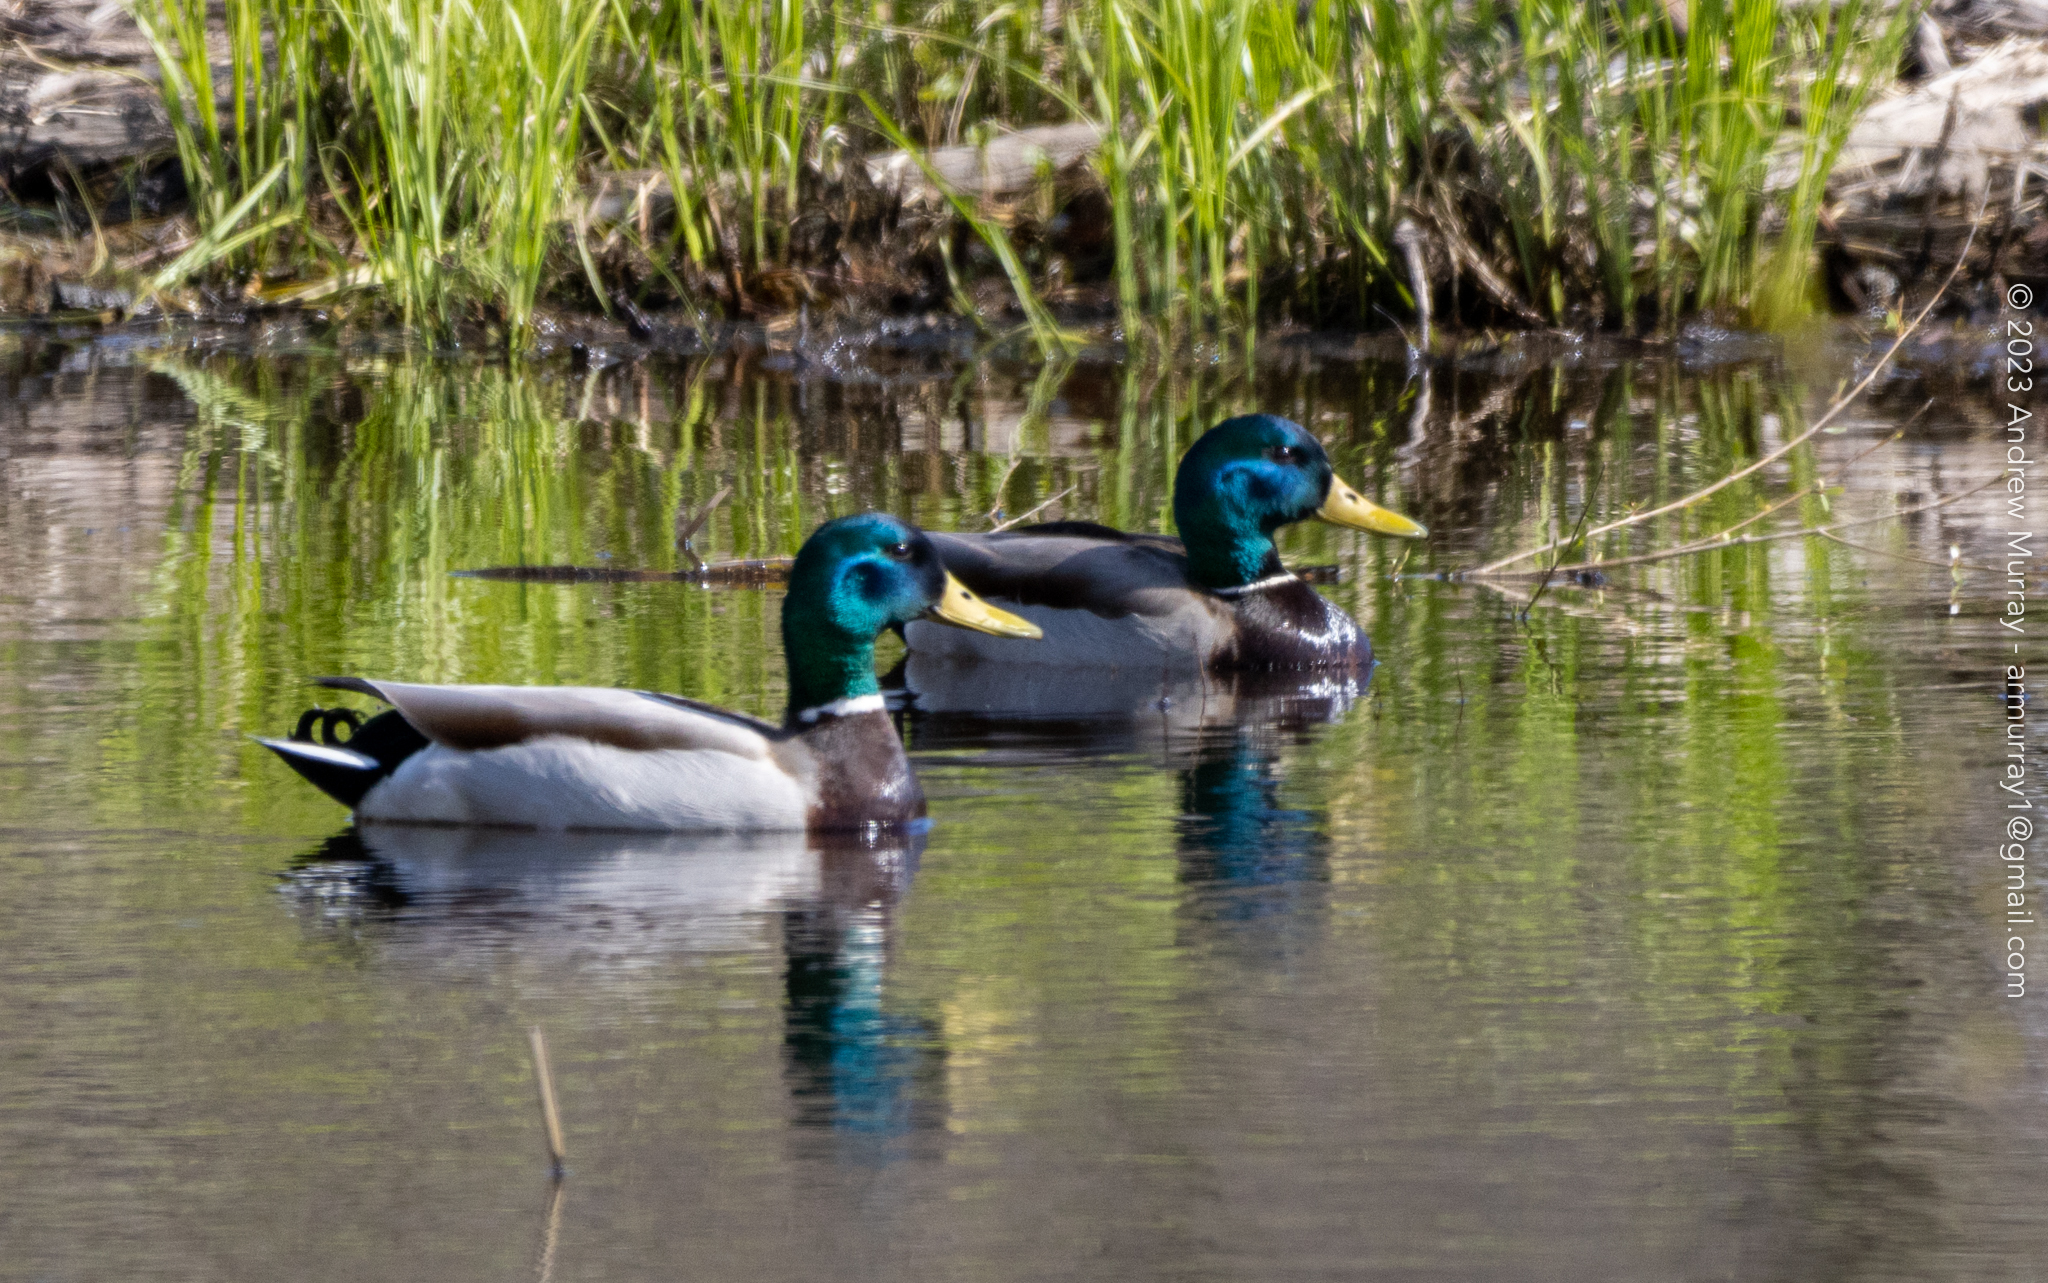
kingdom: Animalia
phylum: Chordata
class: Aves
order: Anseriformes
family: Anatidae
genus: Anas
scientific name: Anas platyrhynchos
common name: Mallard
